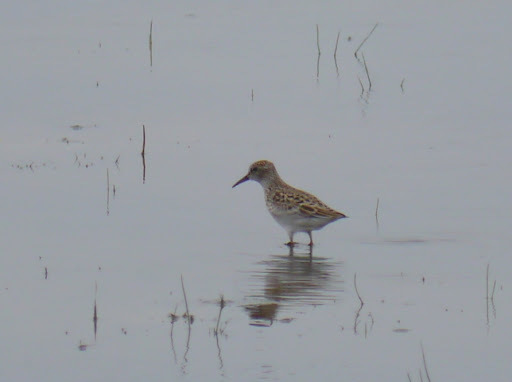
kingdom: Animalia
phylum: Chordata
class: Aves
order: Charadriiformes
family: Scolopacidae
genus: Calidris
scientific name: Calidris minutilla
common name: Least sandpiper
